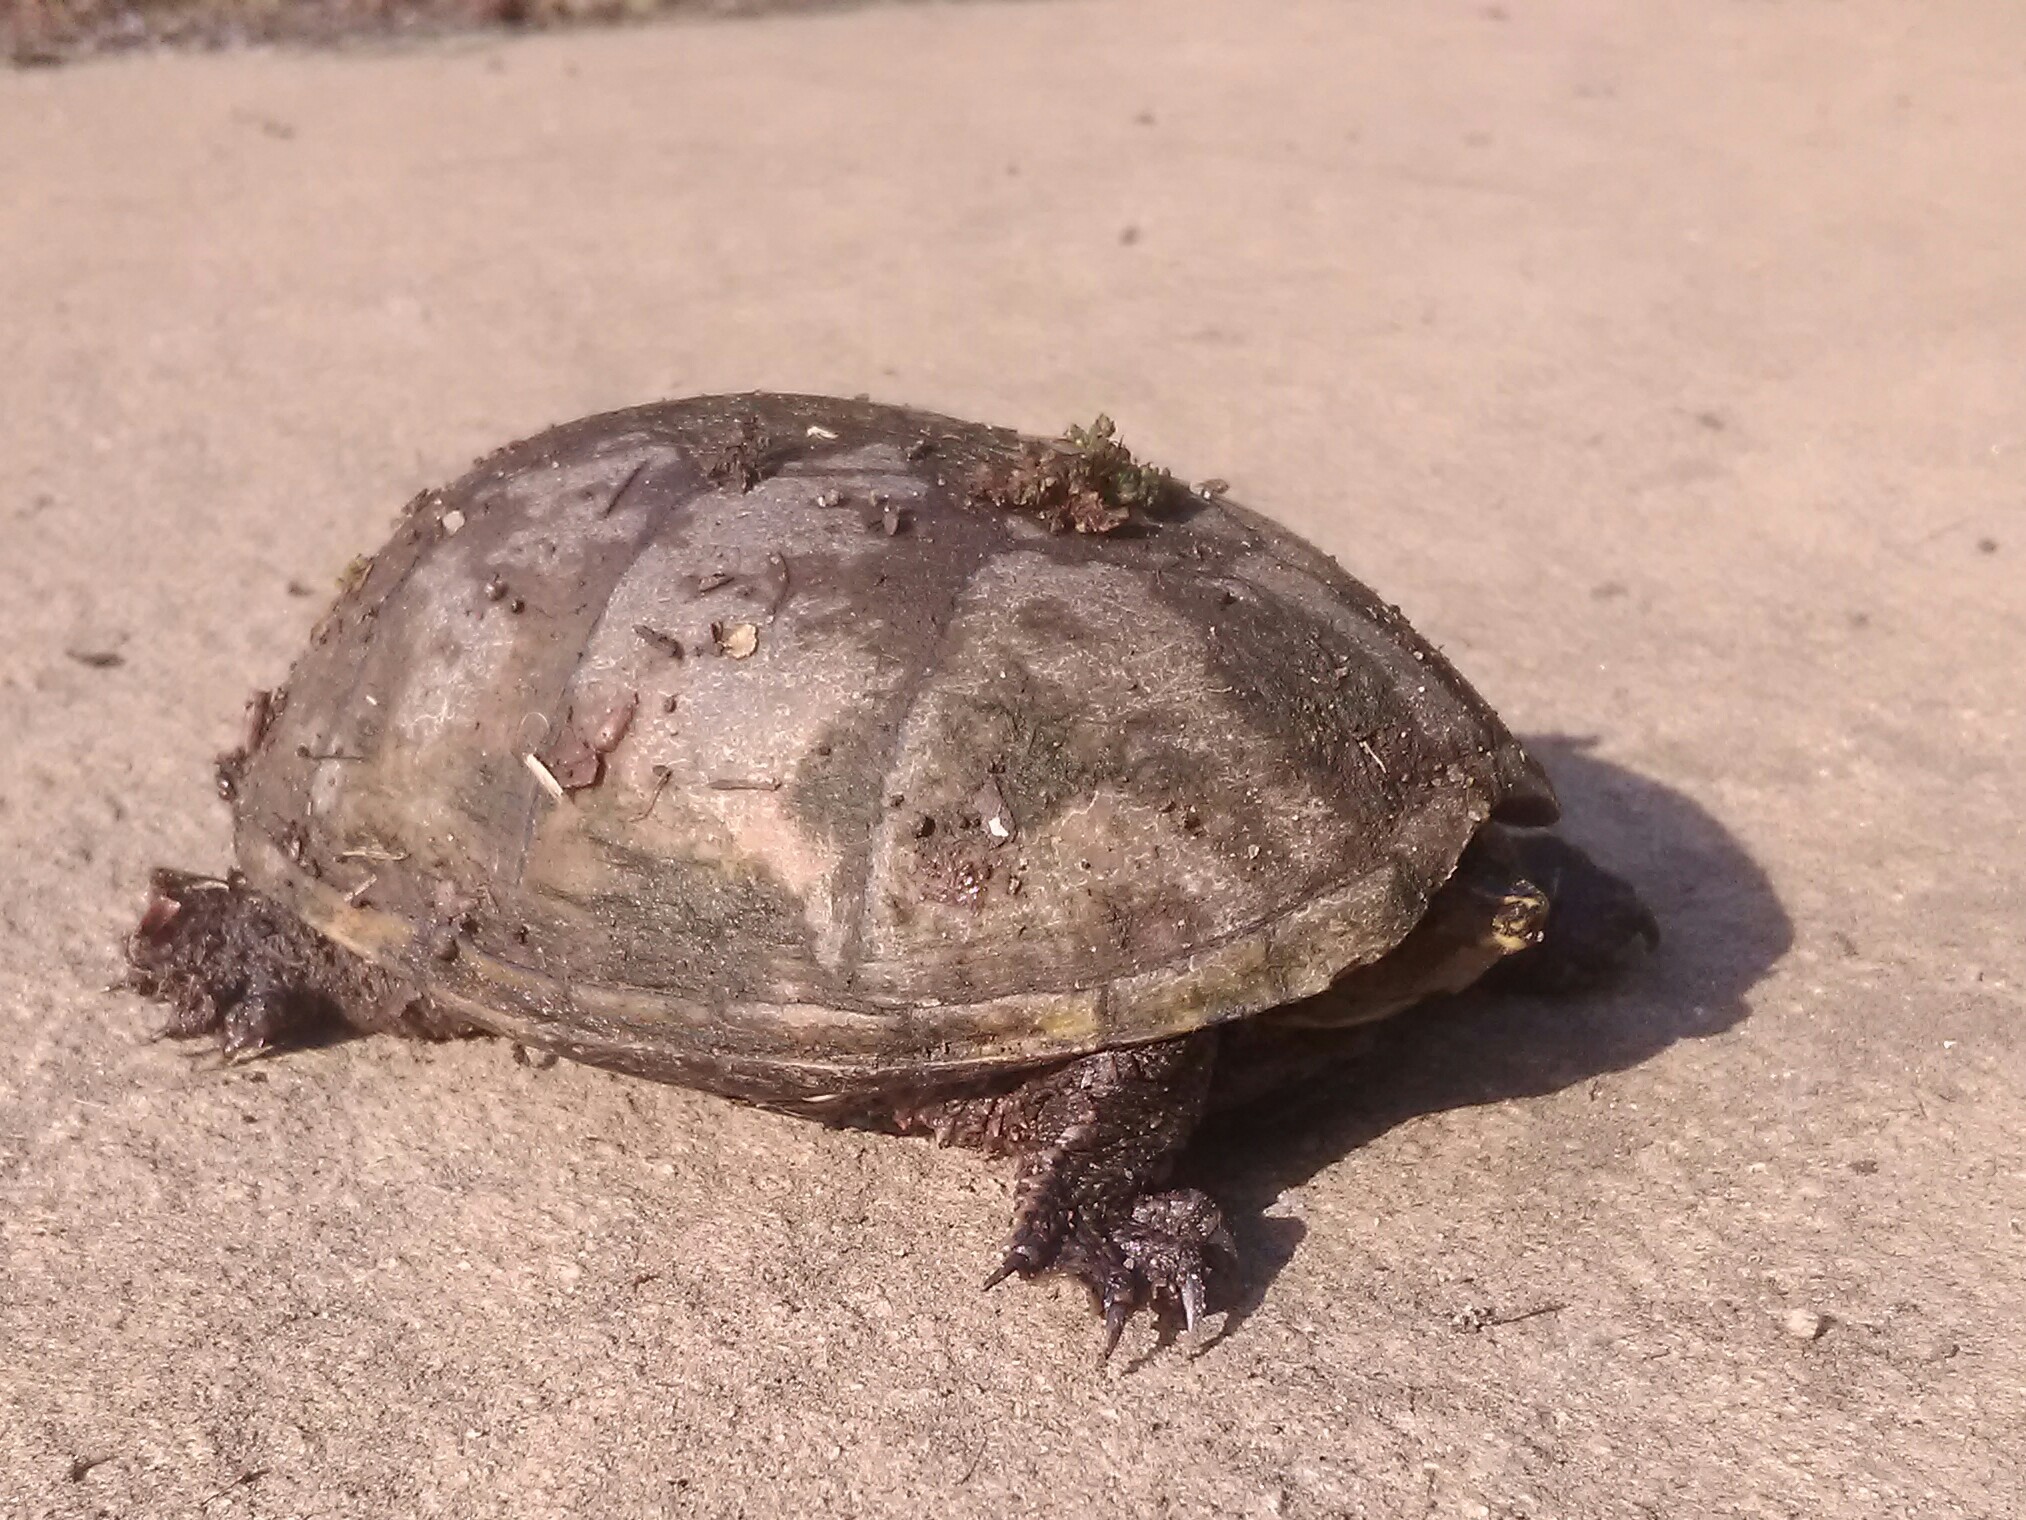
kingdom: Animalia
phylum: Chordata
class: Testudines
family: Kinosternidae
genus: Sternotherus
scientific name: Sternotherus odoratus
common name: Common musk turtle
